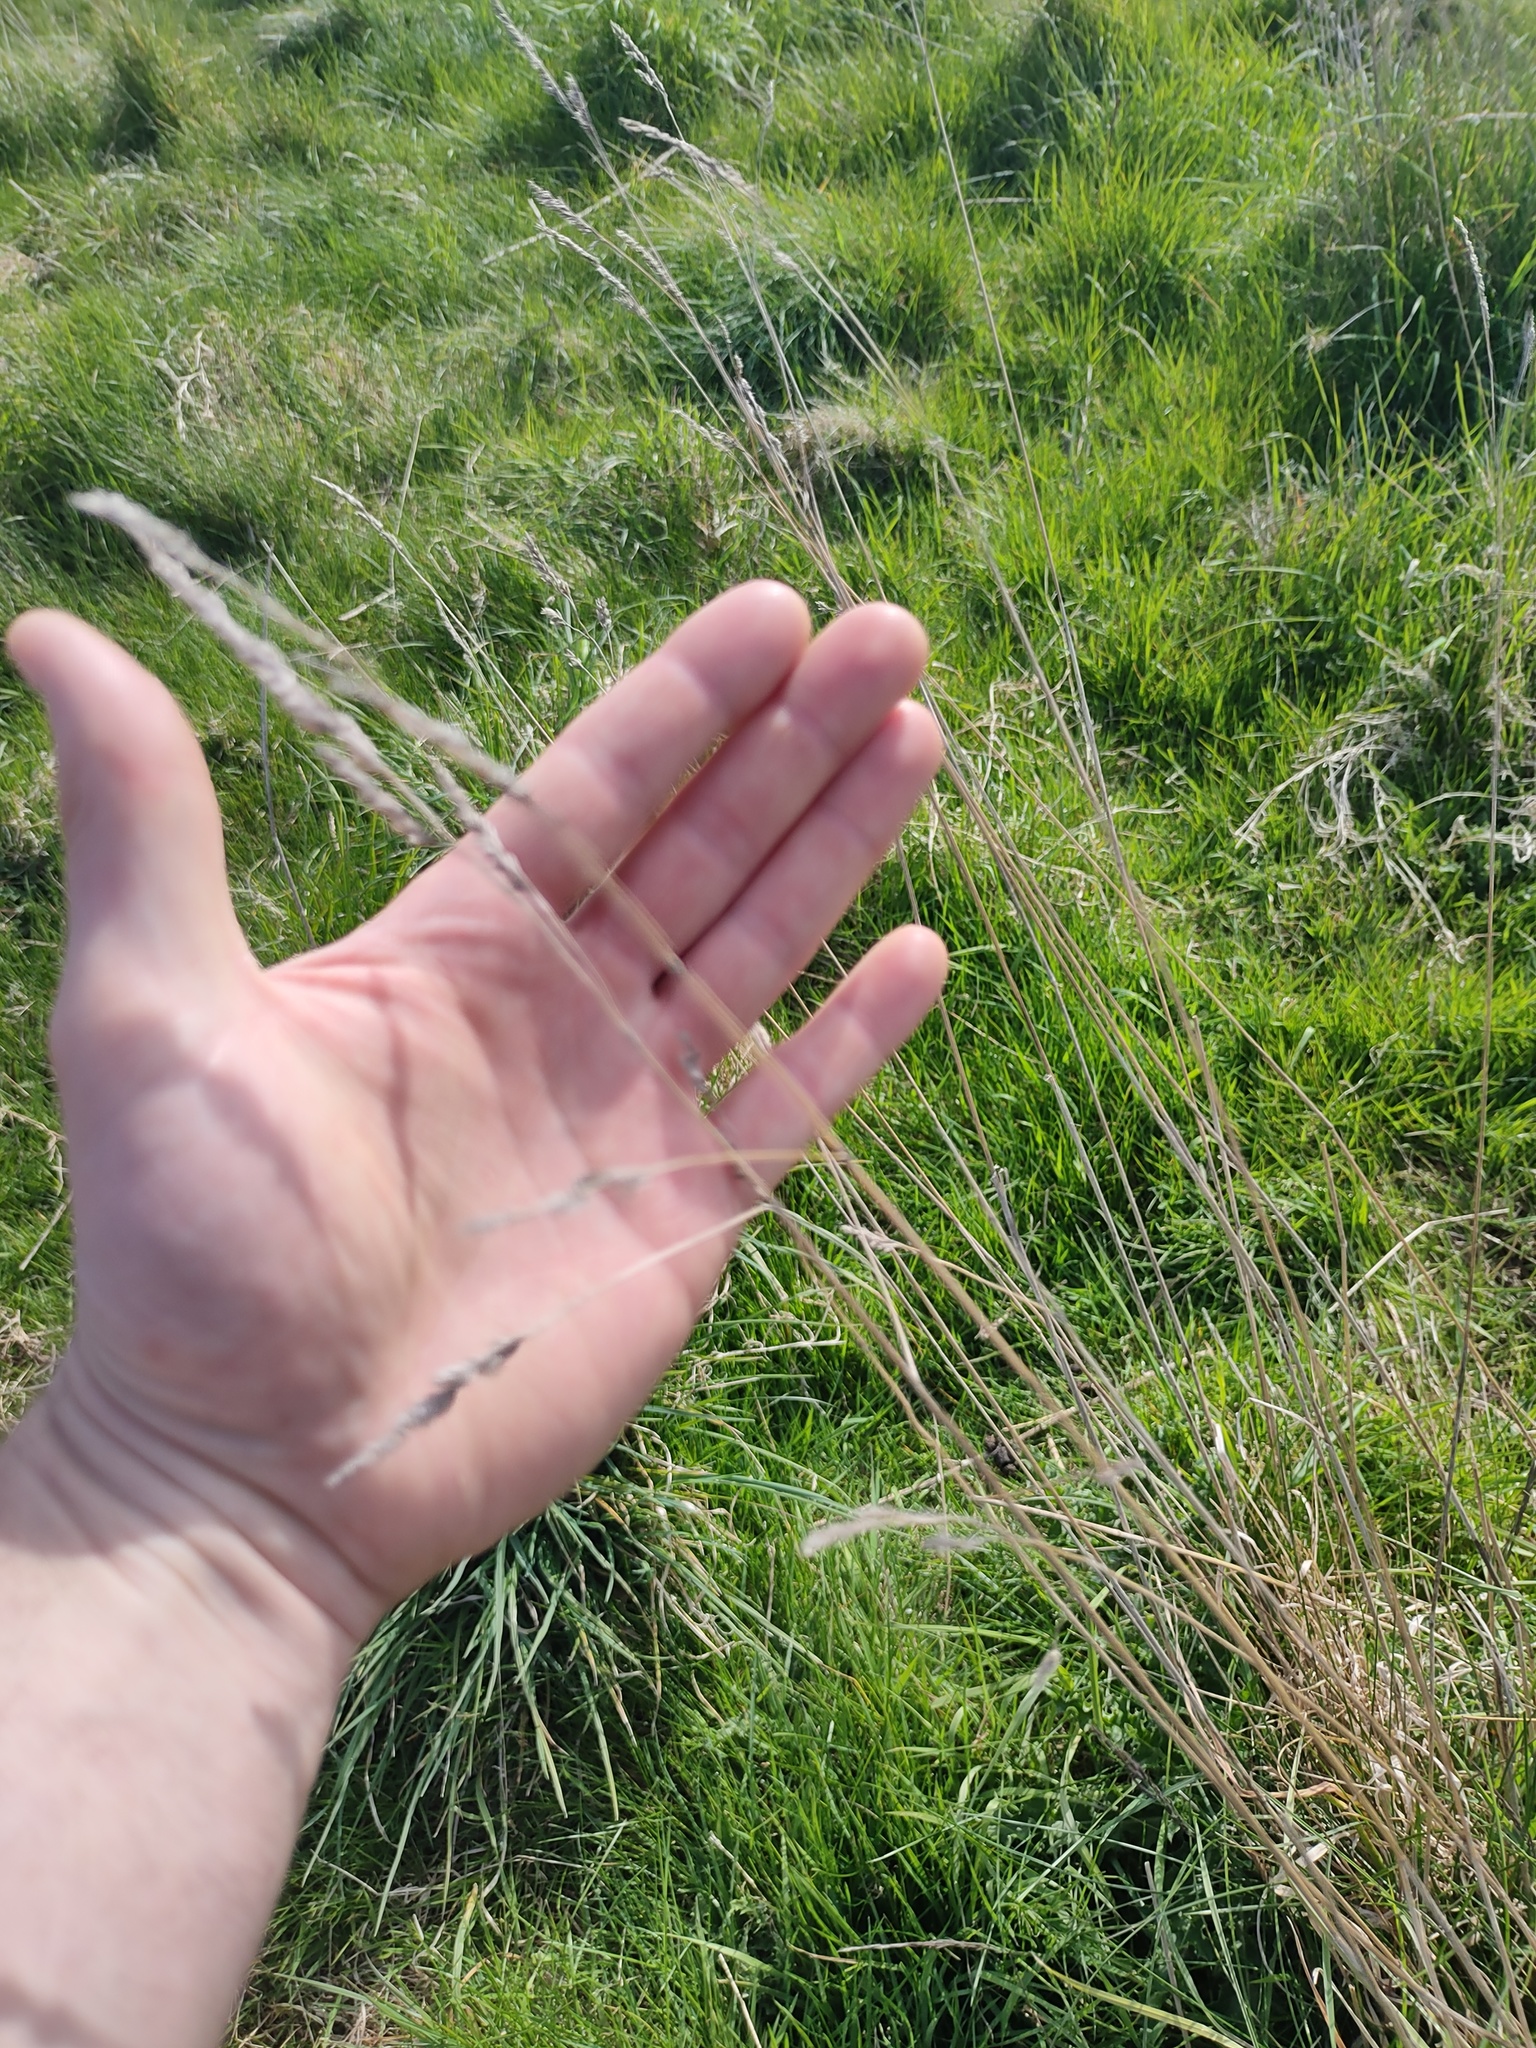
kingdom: Plantae
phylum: Tracheophyta
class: Liliopsida
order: Poales
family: Poaceae
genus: Dactylis
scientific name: Dactylis glomerata
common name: Orchardgrass
